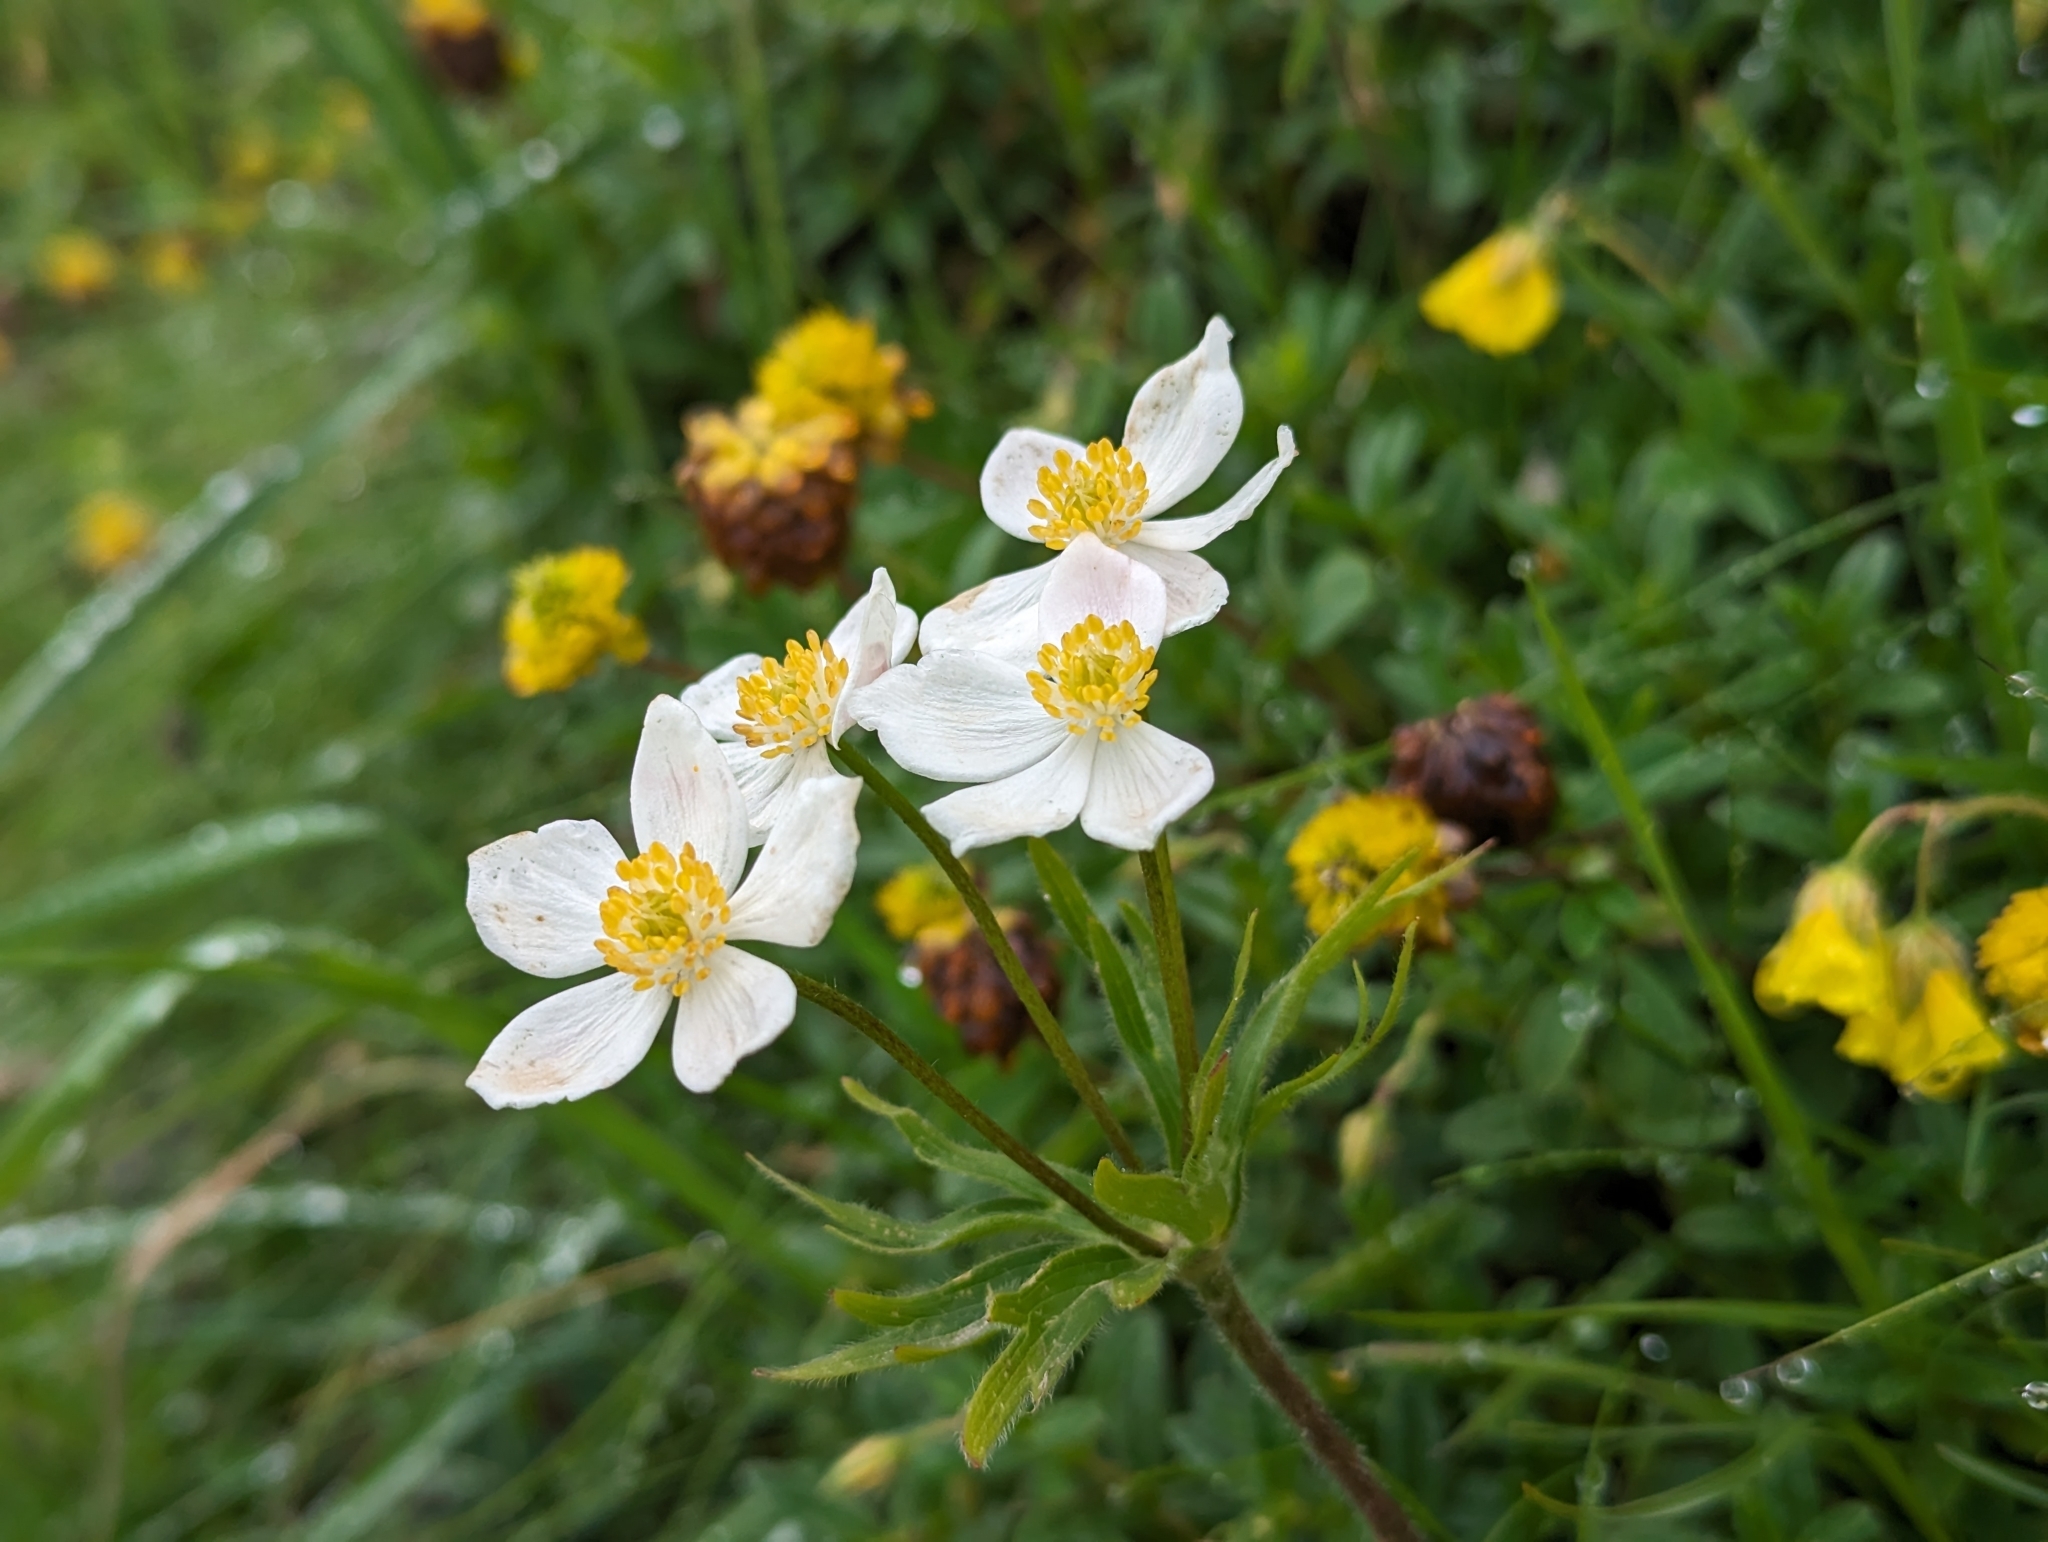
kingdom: Plantae
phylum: Tracheophyta
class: Magnoliopsida
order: Ranunculales
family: Ranunculaceae
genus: Anemonastrum
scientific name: Anemonastrum narcissiflorum
